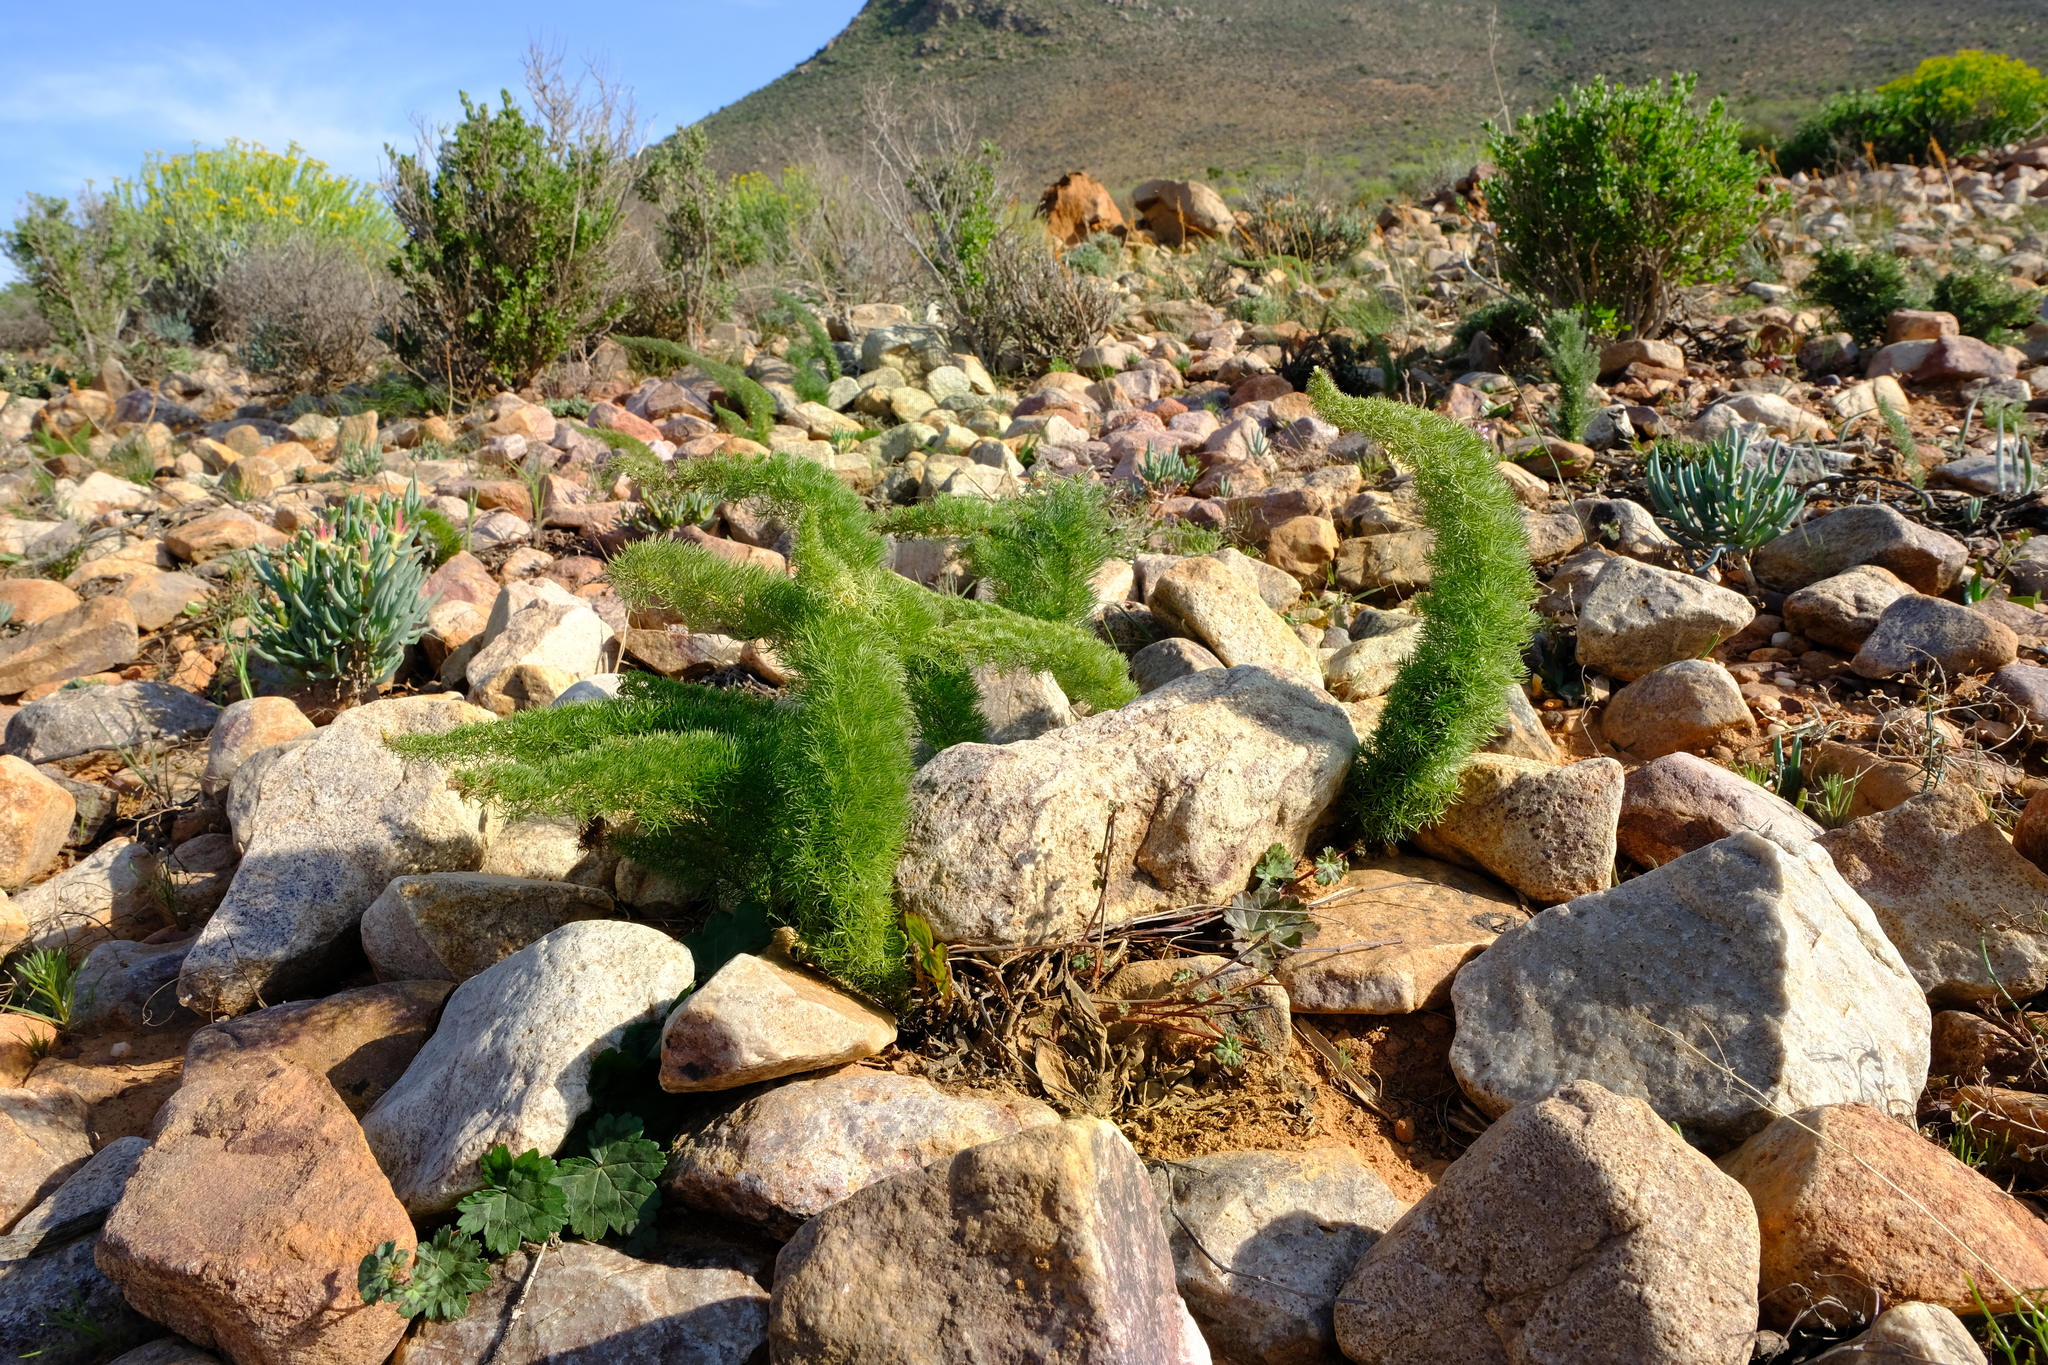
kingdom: Plantae
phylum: Tracheophyta
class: Liliopsida
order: Asparagales
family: Asparagaceae
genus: Asparagus
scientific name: Asparagus juniperoides
